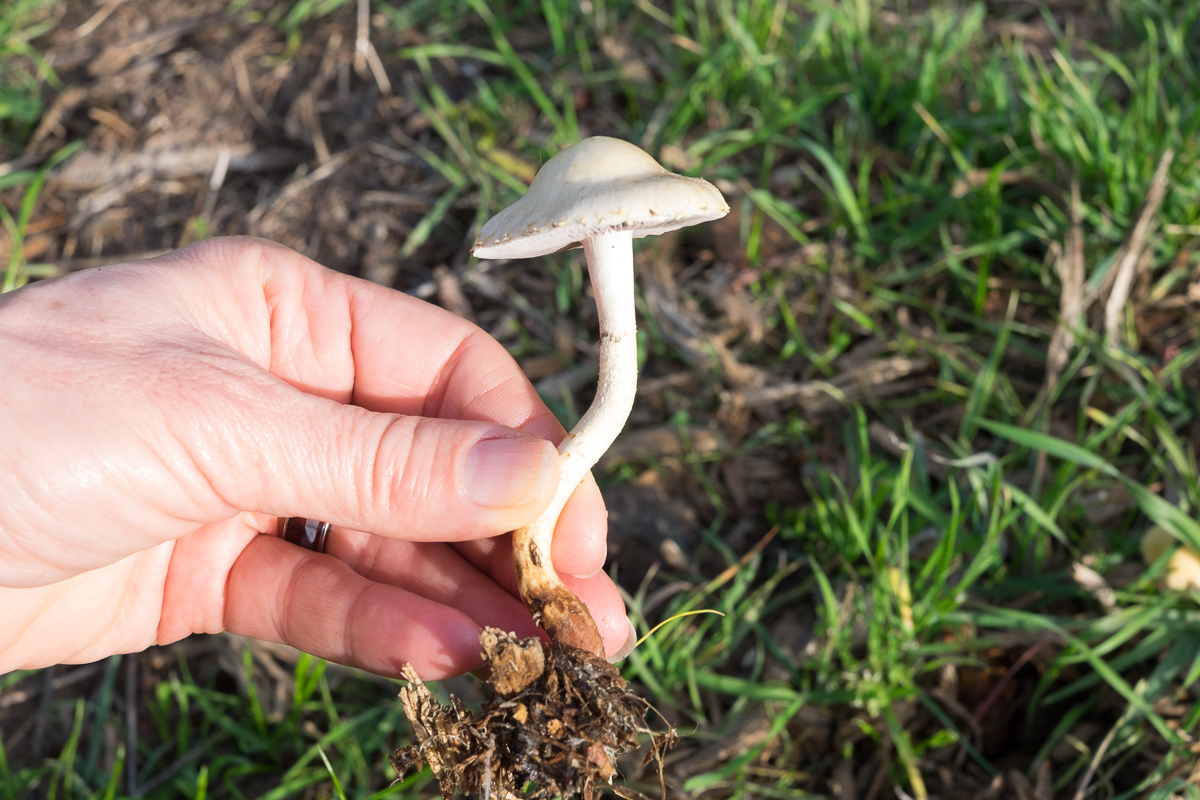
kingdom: Fungi
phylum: Basidiomycota
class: Agaricomycetes
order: Agaricales
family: Strophariaceae
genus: Leratiomyces
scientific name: Leratiomyces percevalii
